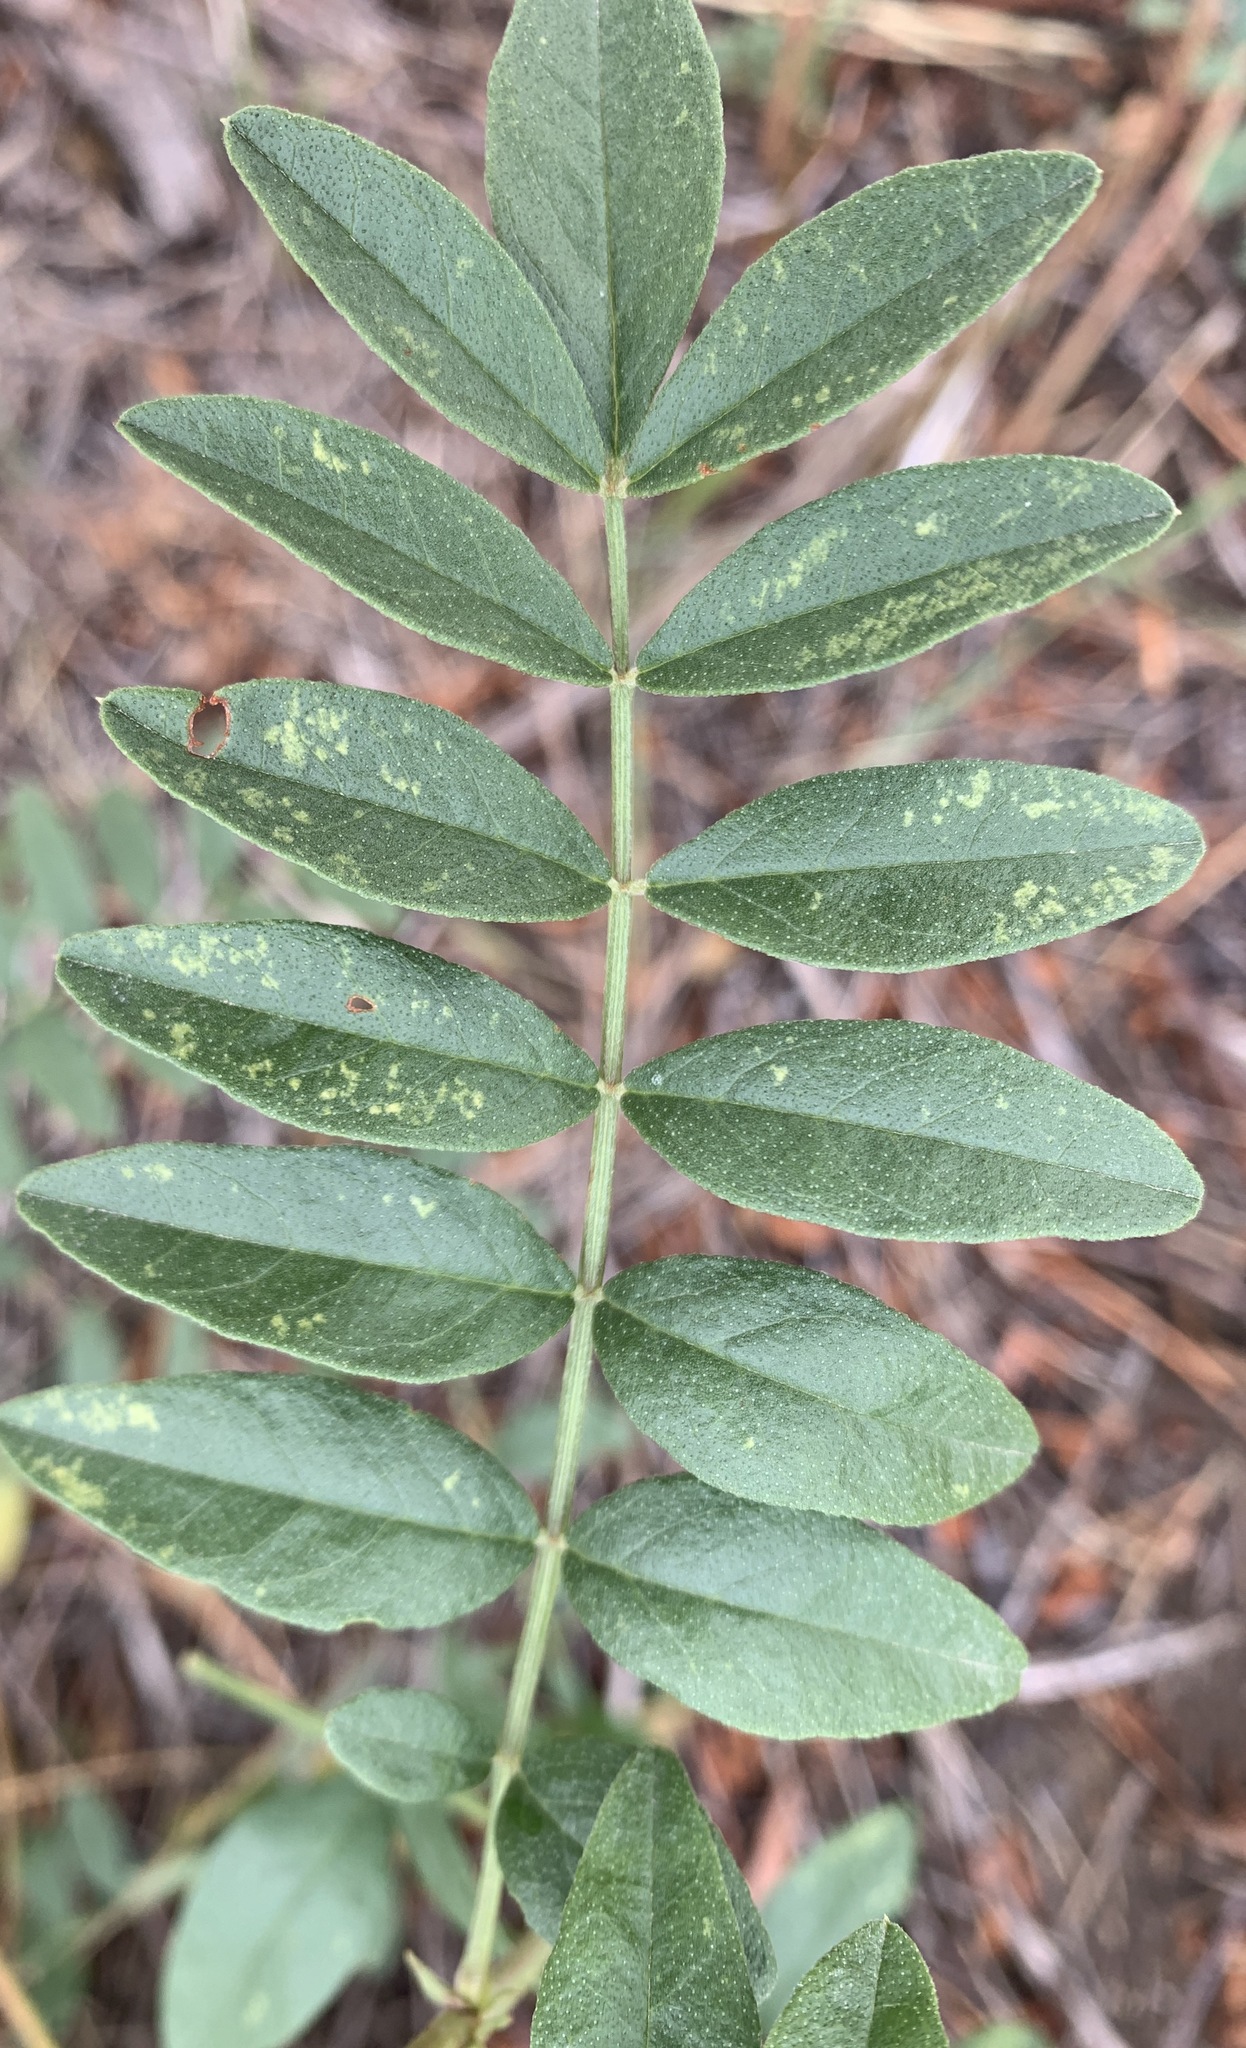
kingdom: Plantae
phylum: Tracheophyta
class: Magnoliopsida
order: Fabales
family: Fabaceae
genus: Glycyrrhiza
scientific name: Glycyrrhiza lepidota
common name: American liquorice
